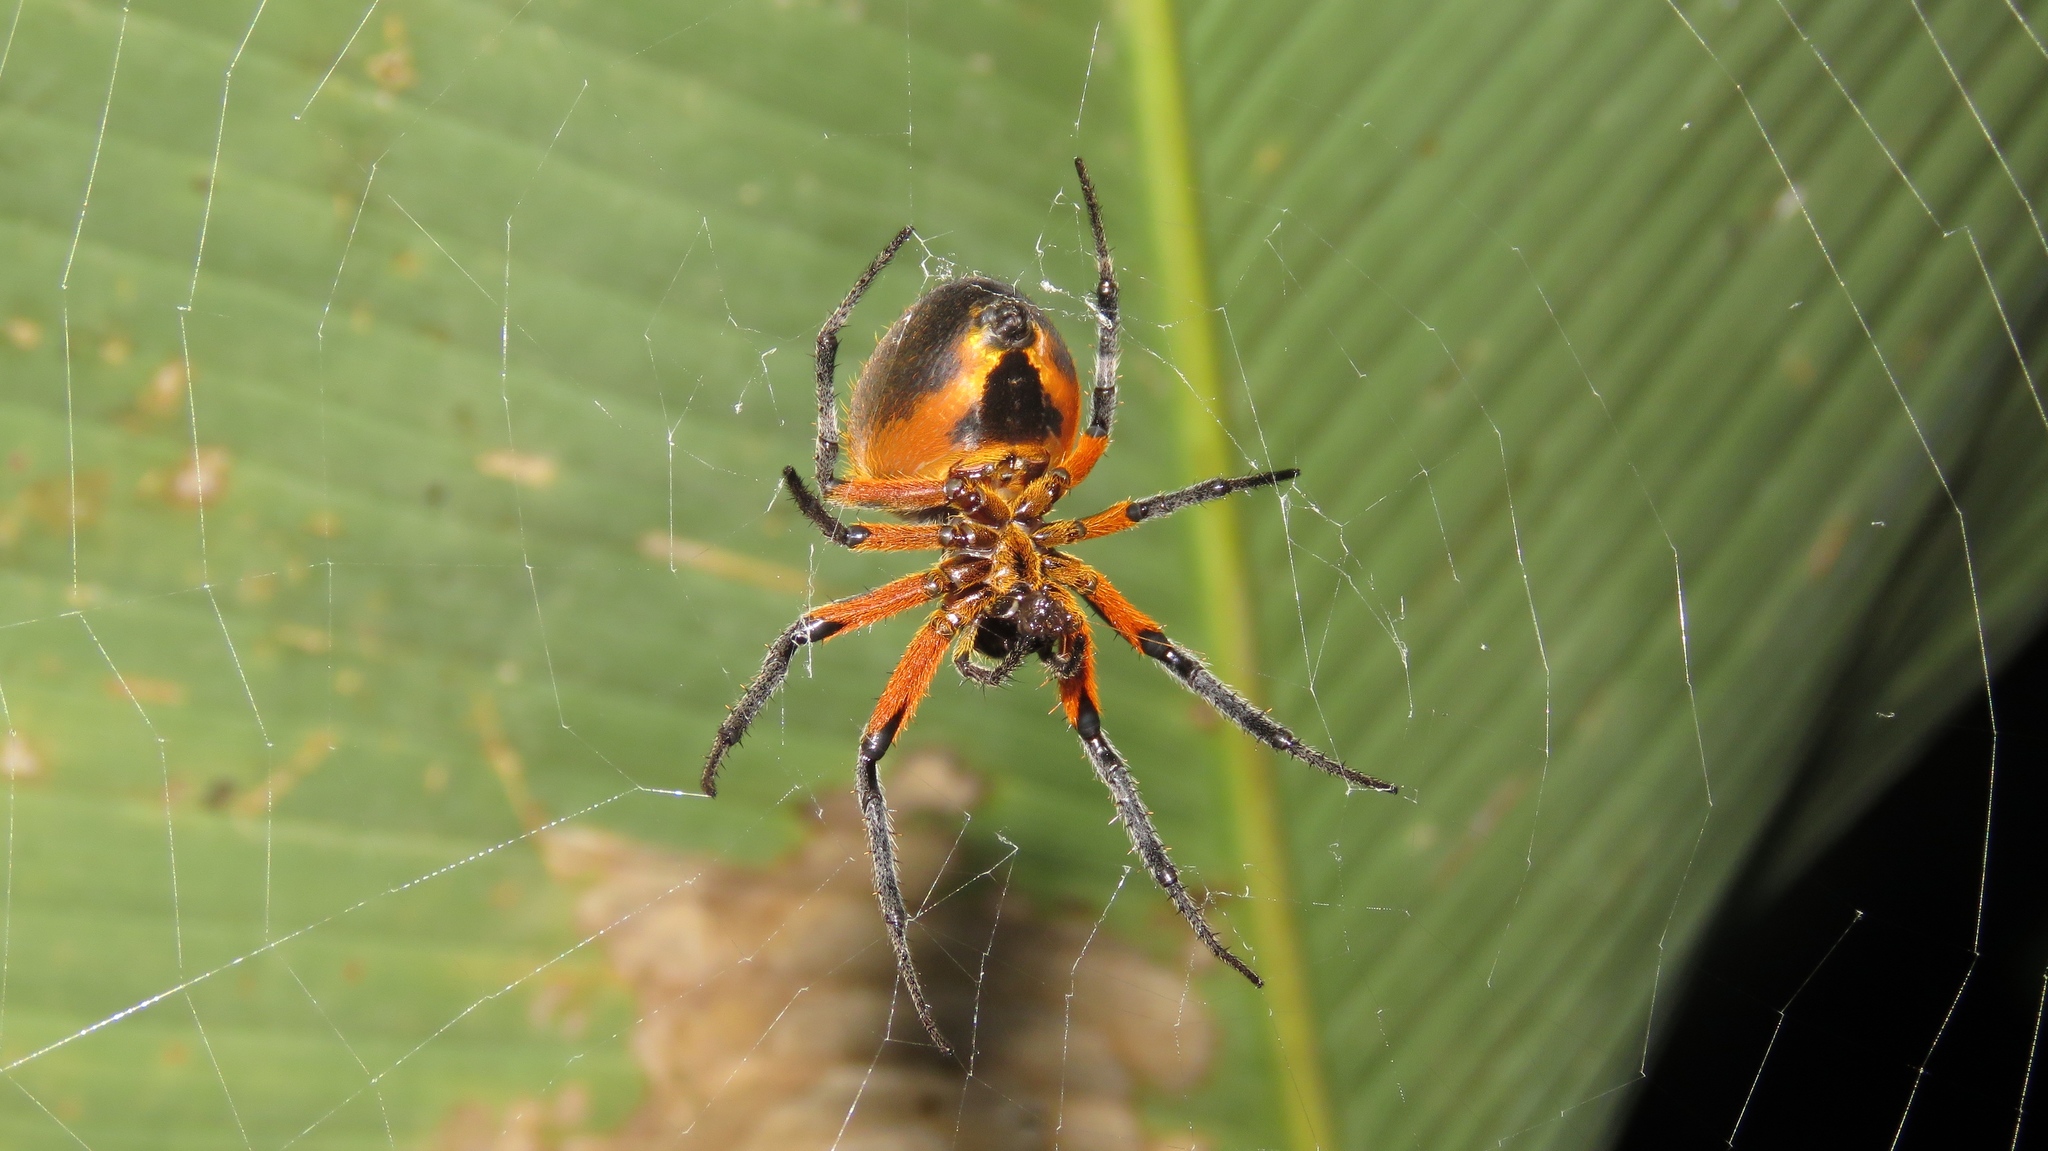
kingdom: Animalia
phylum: Arthropoda
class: Arachnida
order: Araneae
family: Araneidae
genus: Eriophora
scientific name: Eriophora fuliginea
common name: Orb weavers
